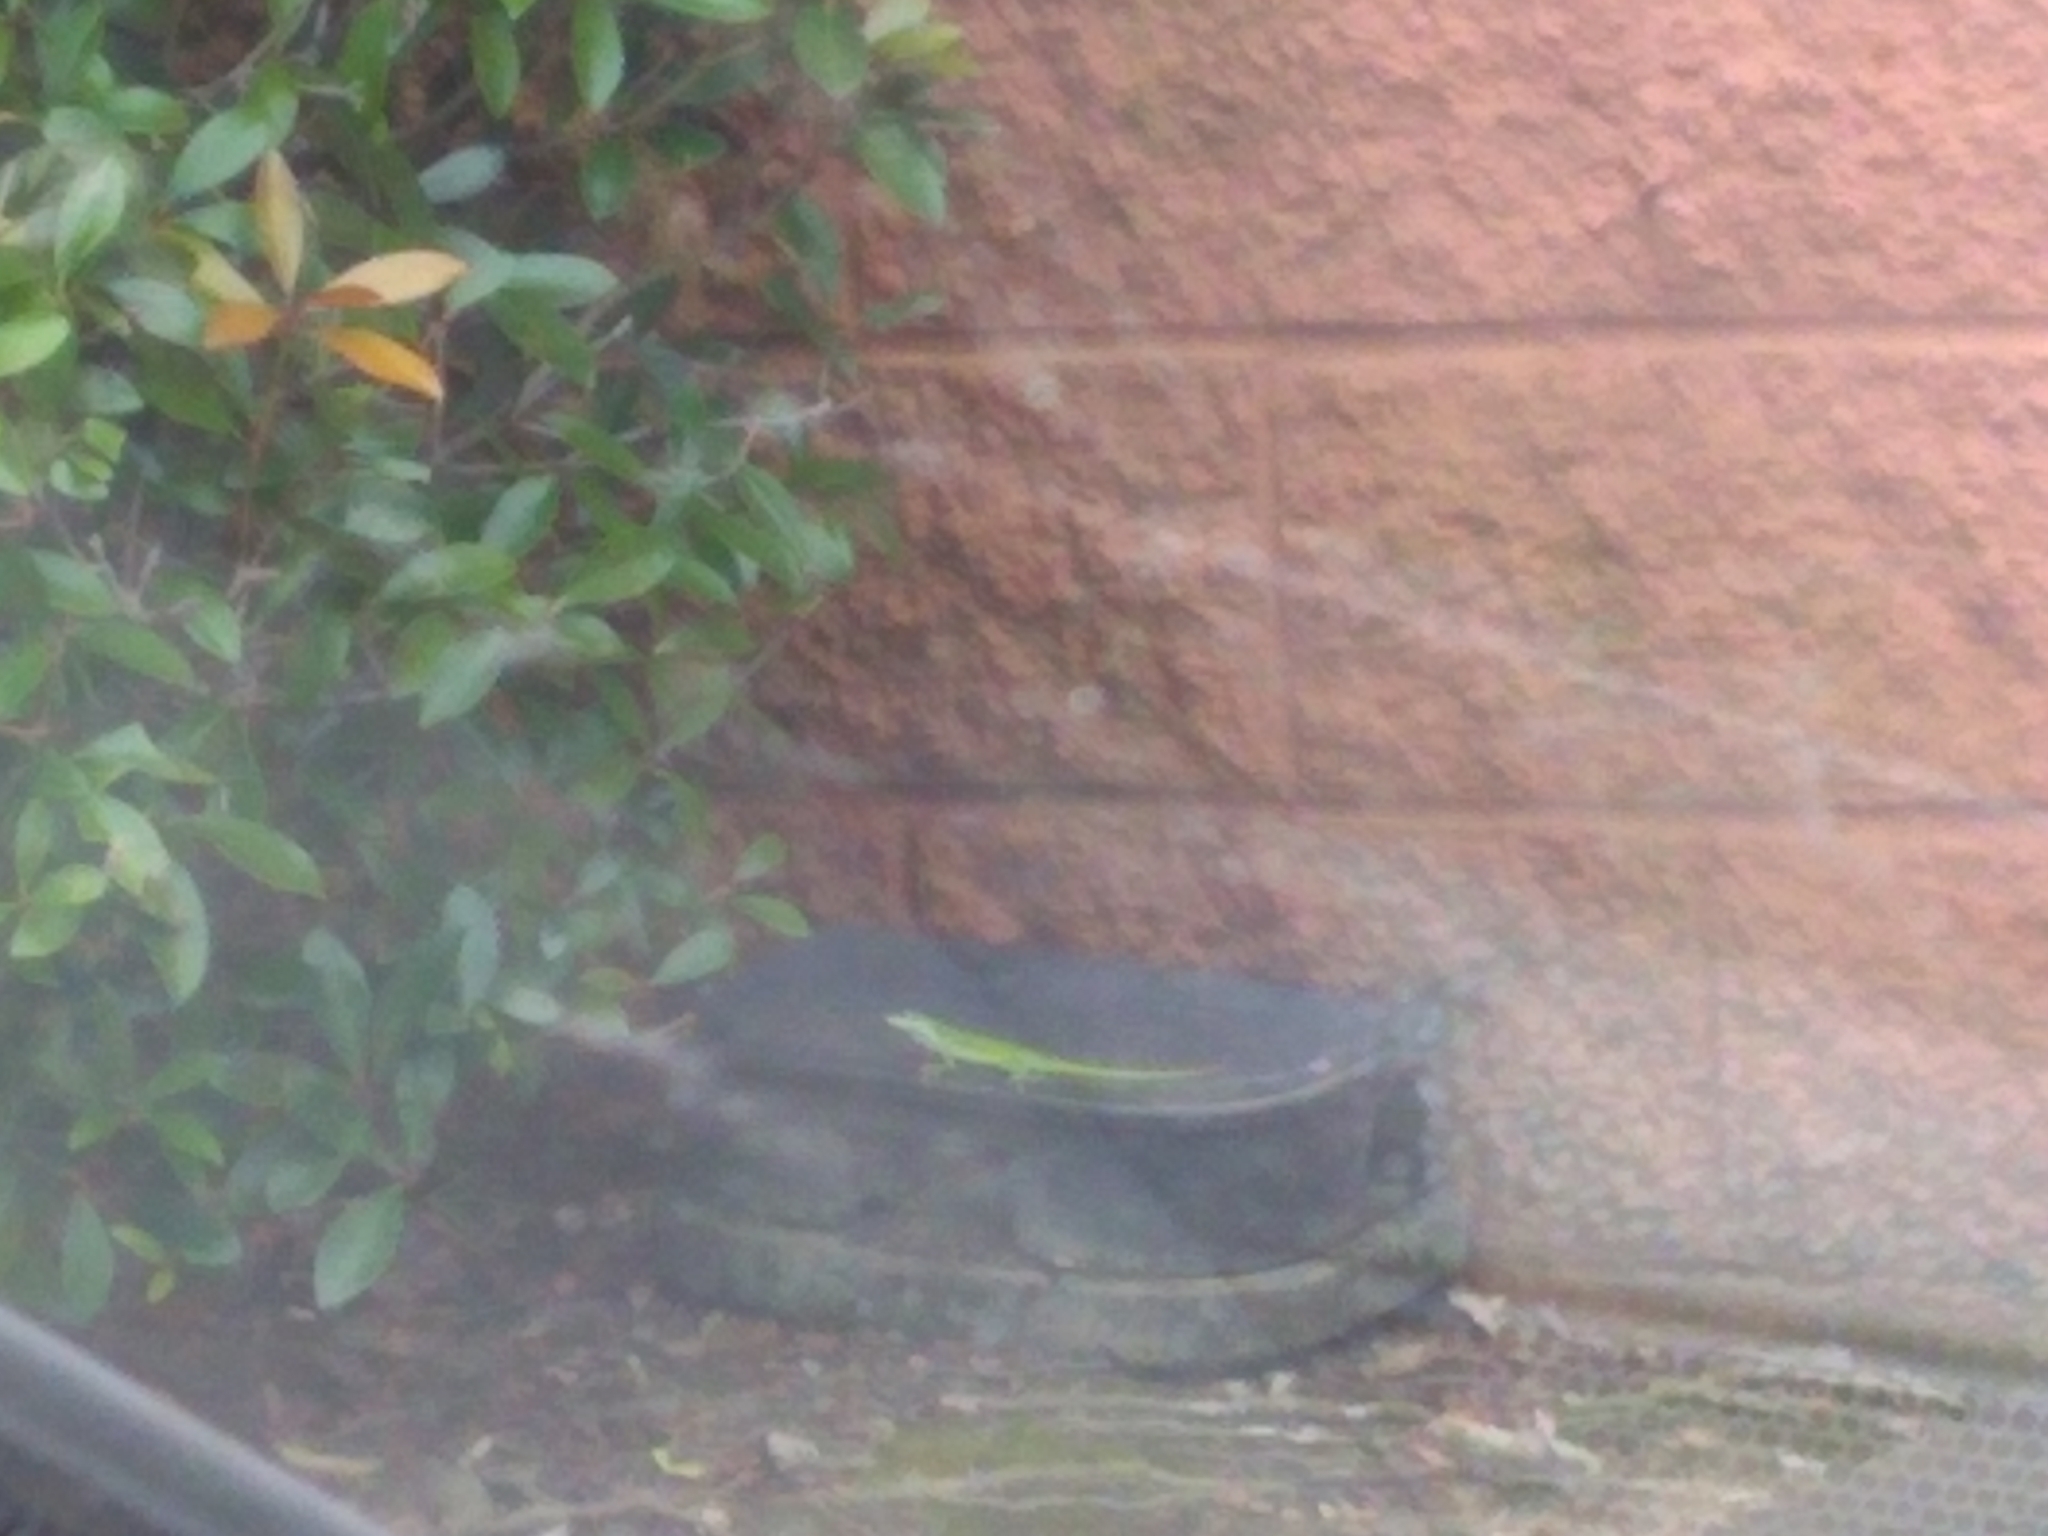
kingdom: Animalia
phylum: Chordata
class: Squamata
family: Dactyloidae
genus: Anolis
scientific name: Anolis carolinensis
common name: Green anole
